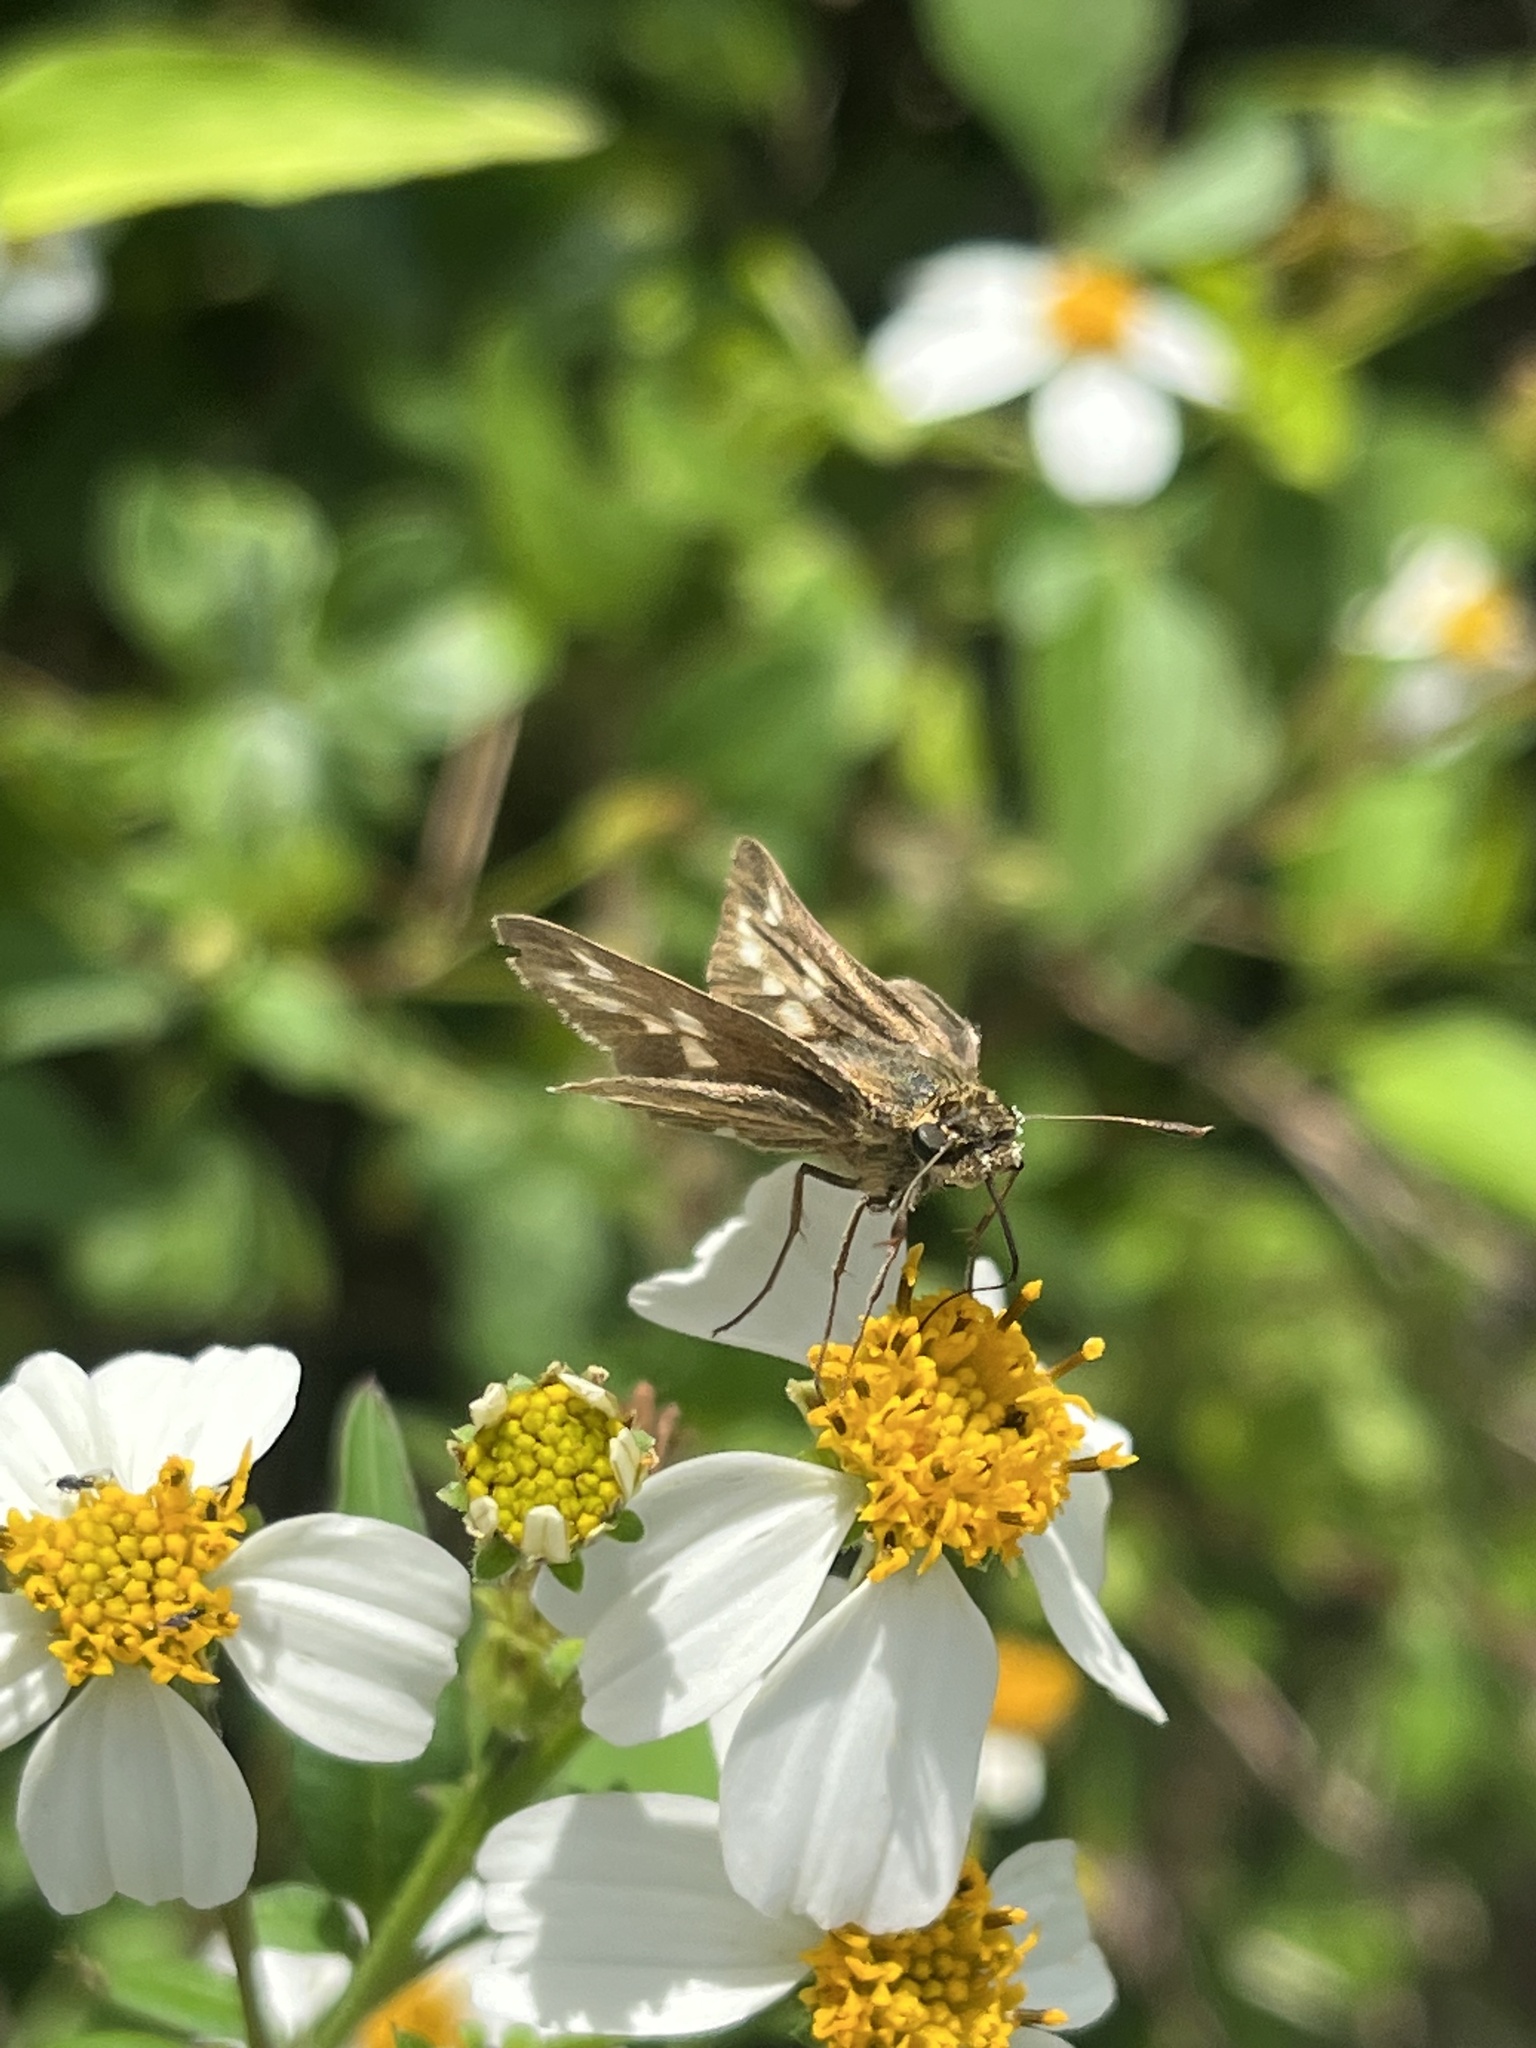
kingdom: Animalia
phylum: Arthropoda
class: Insecta
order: Lepidoptera
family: Hesperiidae
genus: Panoquina
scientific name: Panoquina panoquin
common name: Salt marsh skipper
